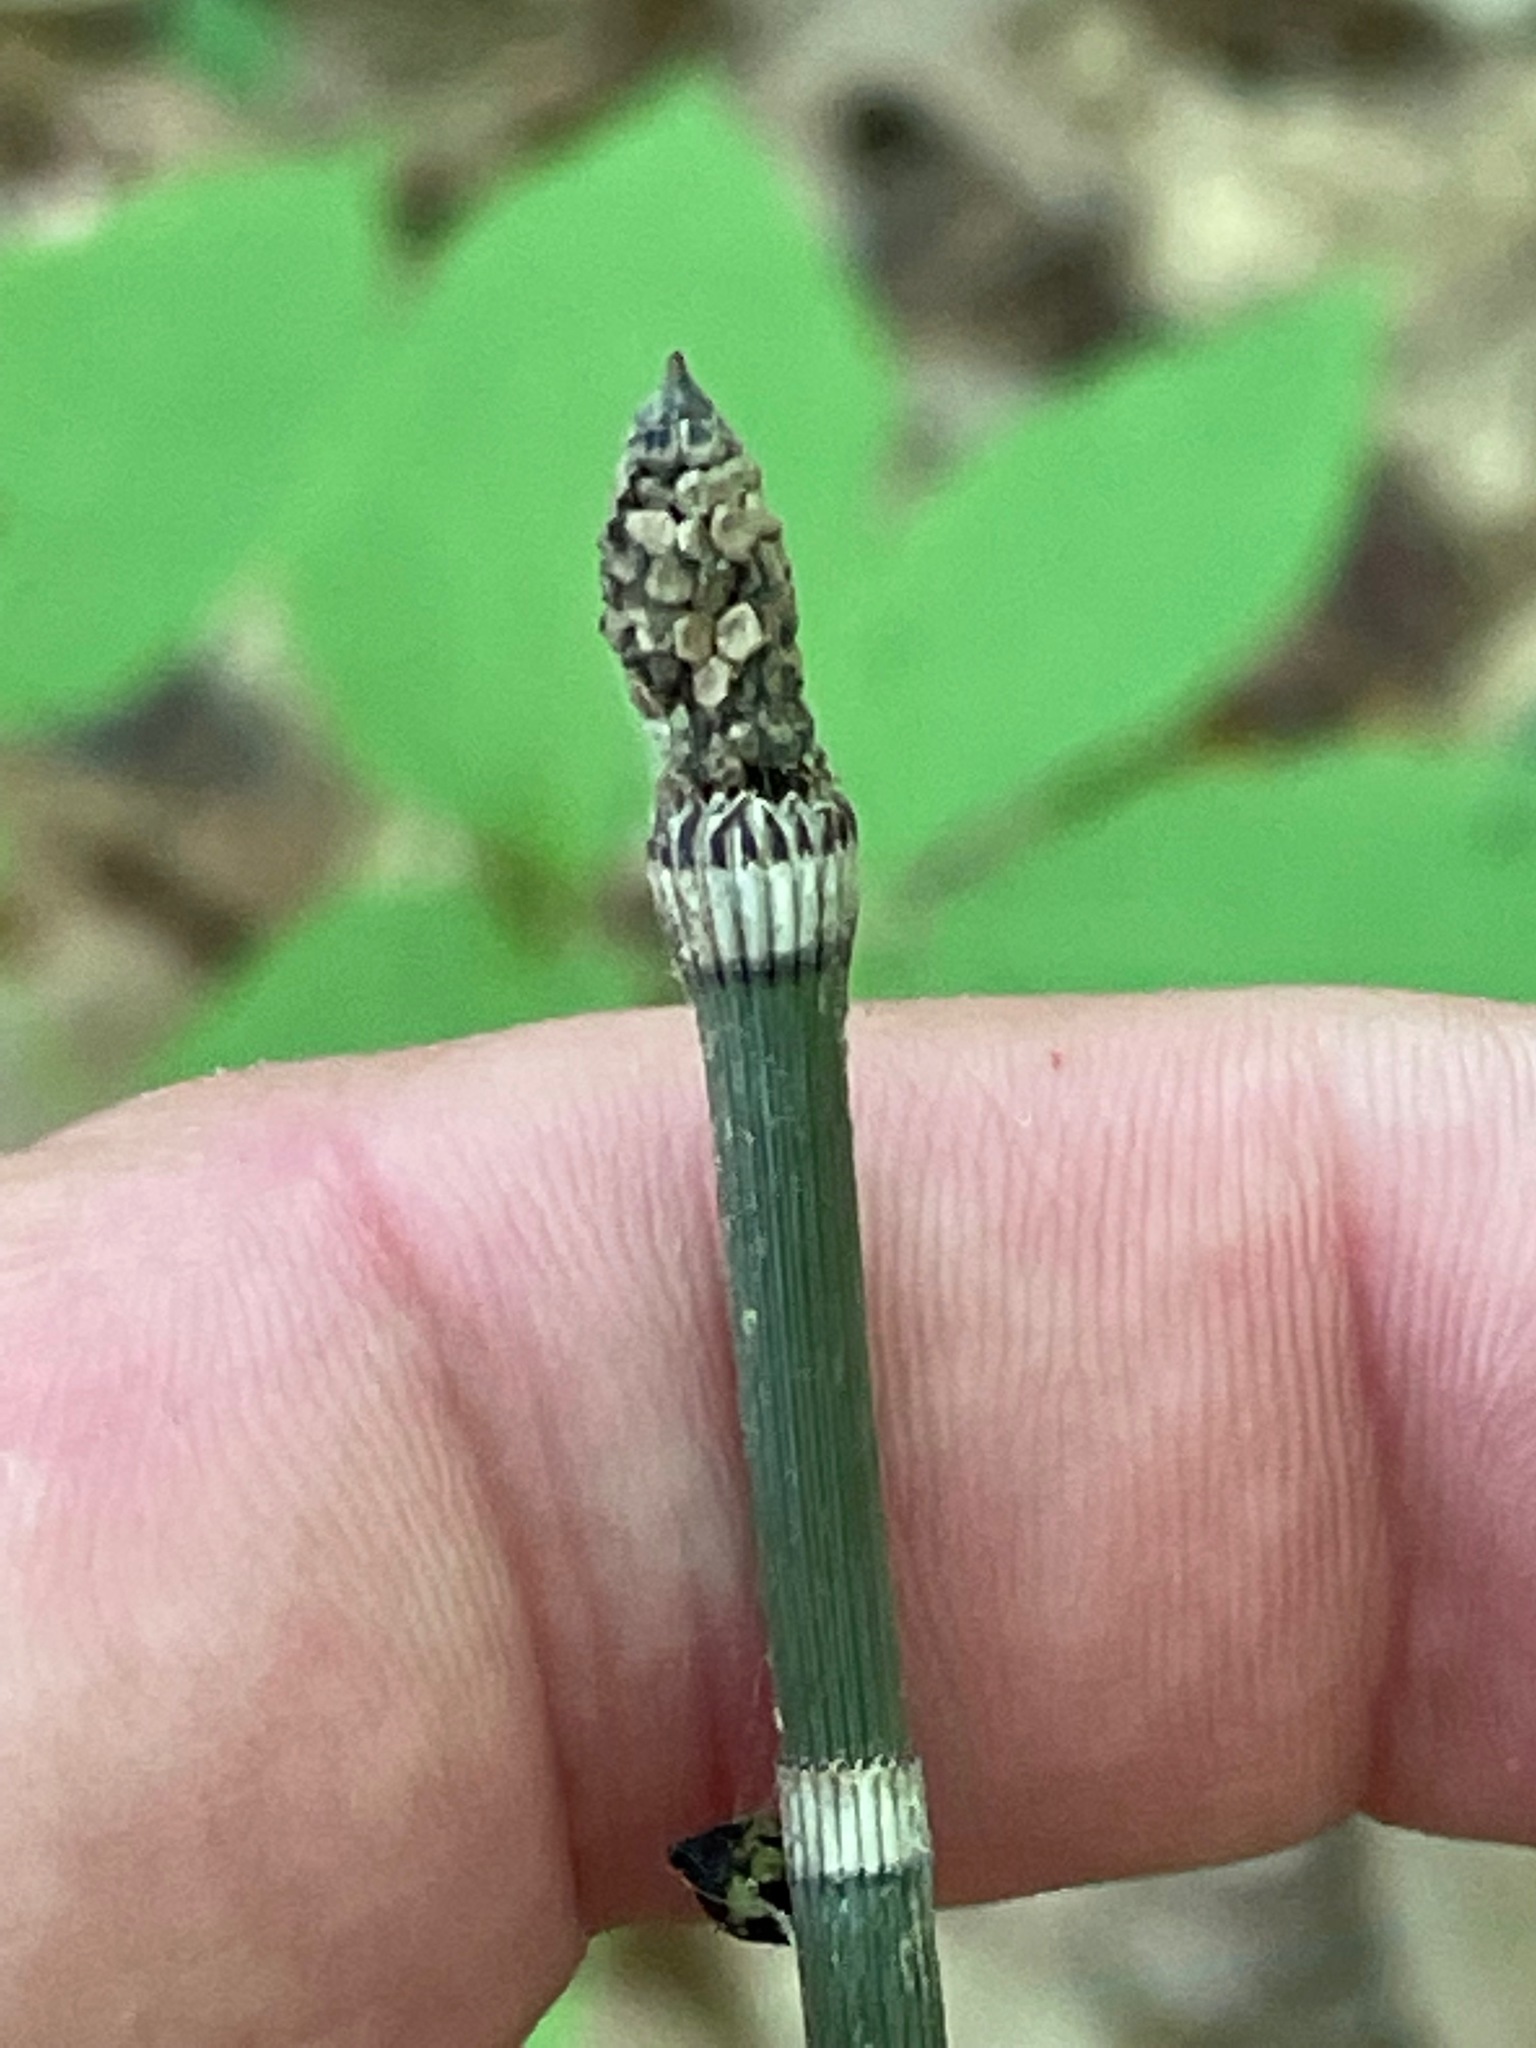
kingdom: Plantae
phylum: Tracheophyta
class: Polypodiopsida
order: Equisetales
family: Equisetaceae
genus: Equisetum
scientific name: Equisetum hyemale
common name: Rough horsetail
